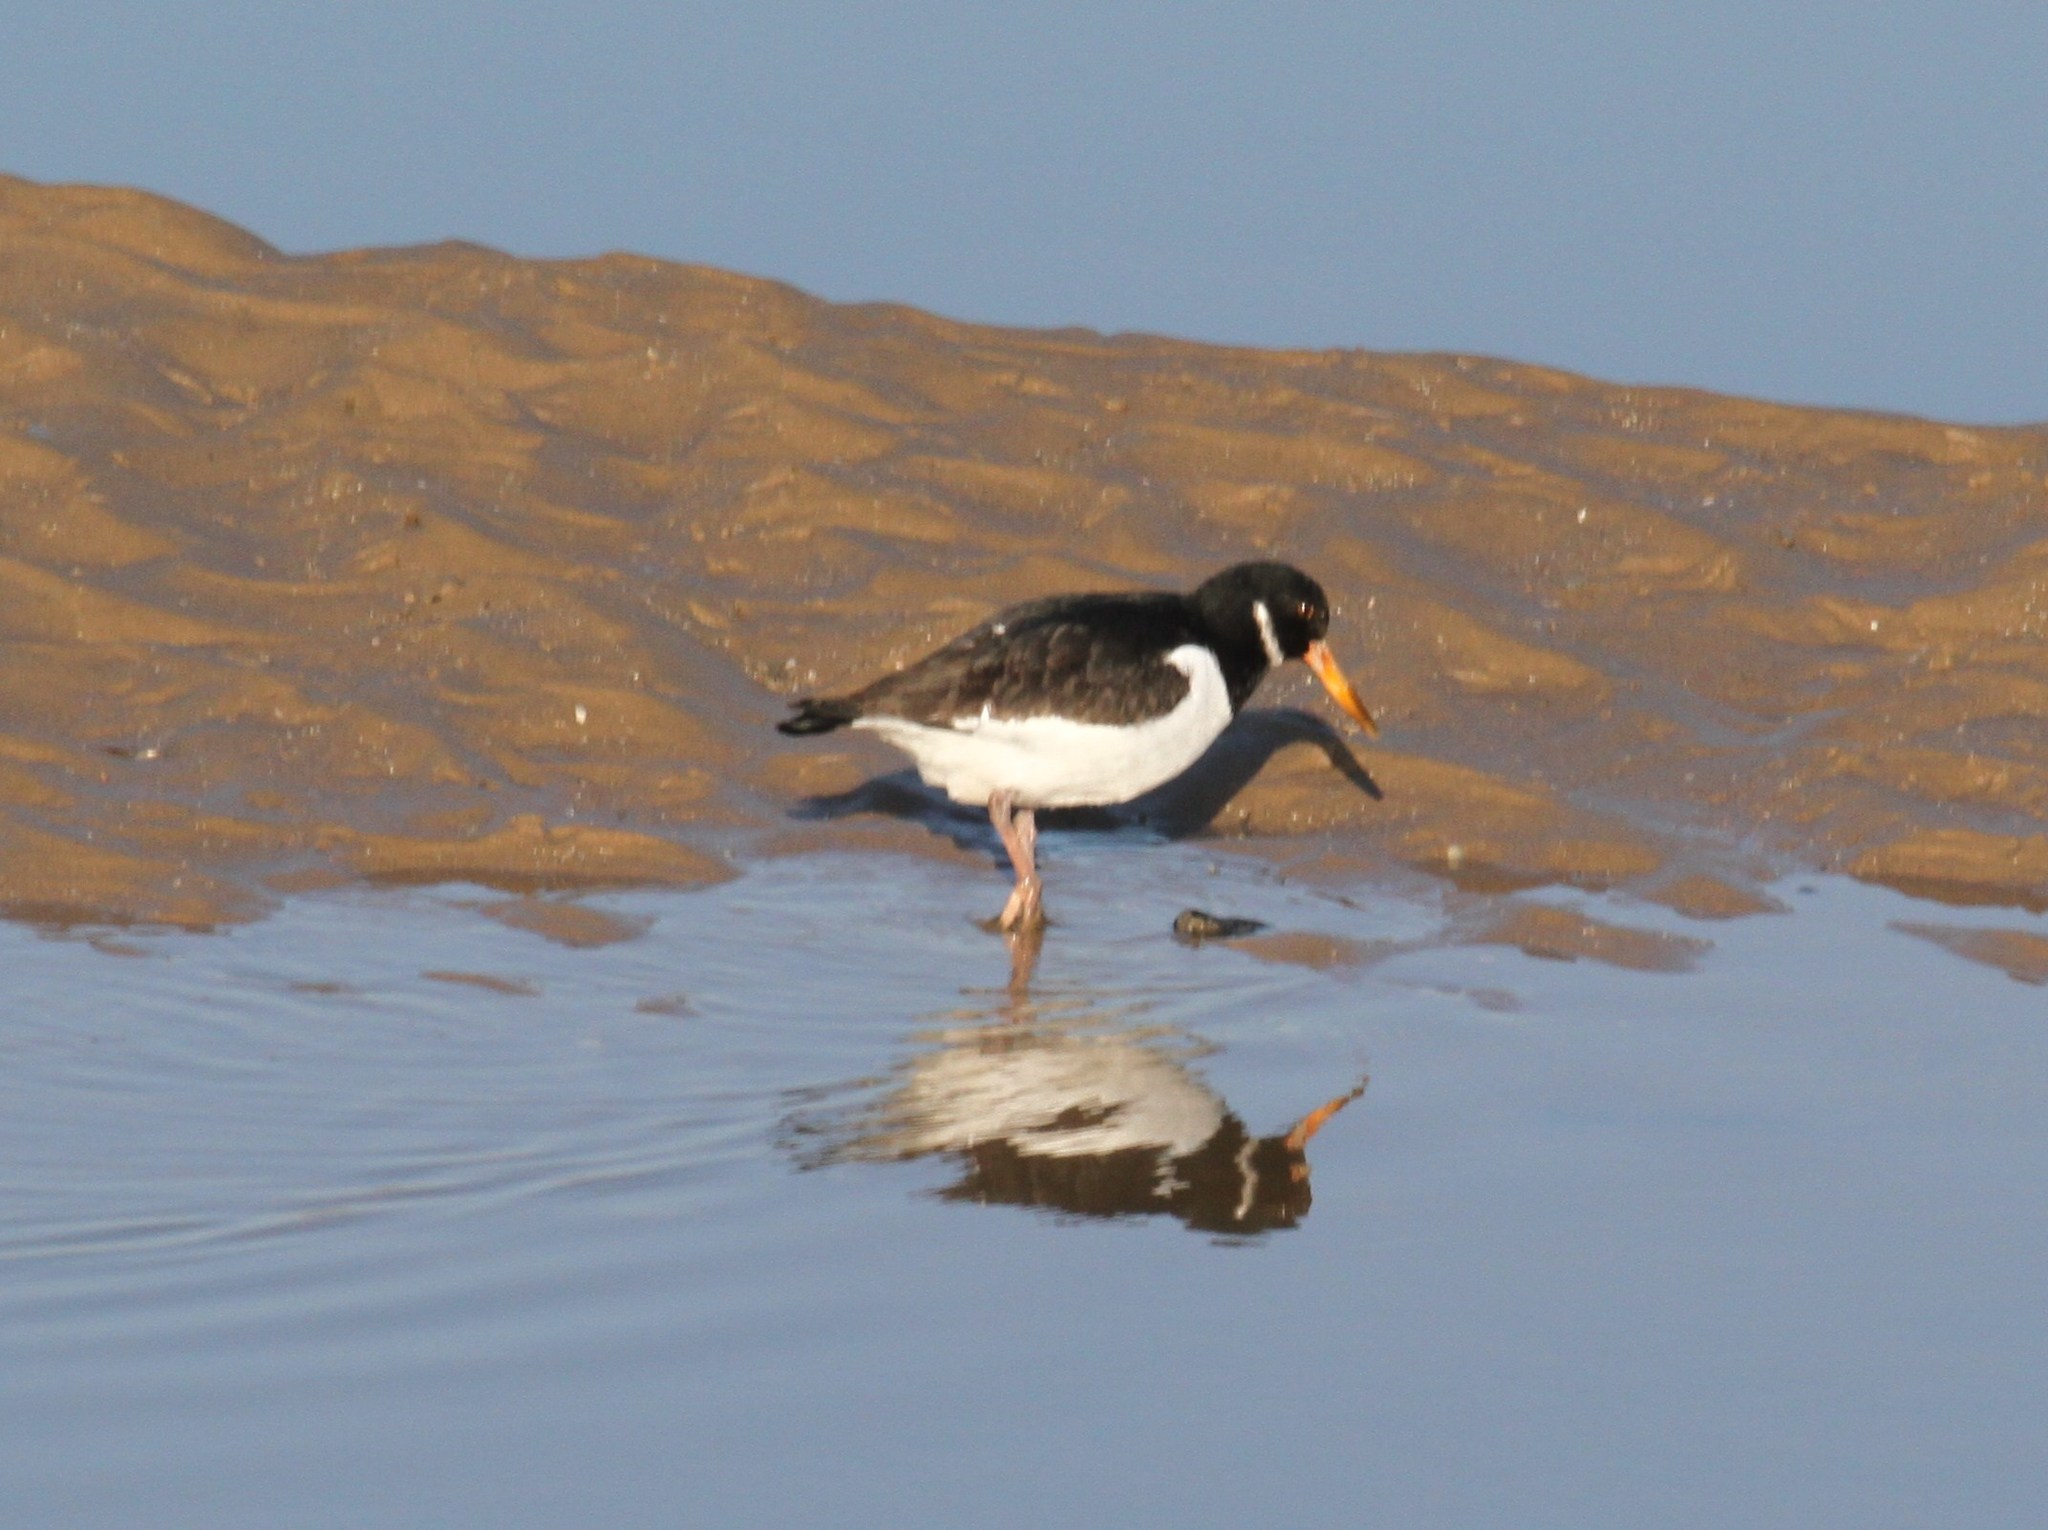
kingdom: Animalia
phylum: Chordata
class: Aves
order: Charadriiformes
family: Haematopodidae
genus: Haematopus
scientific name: Haematopus ostralegus
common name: Eurasian oystercatcher
